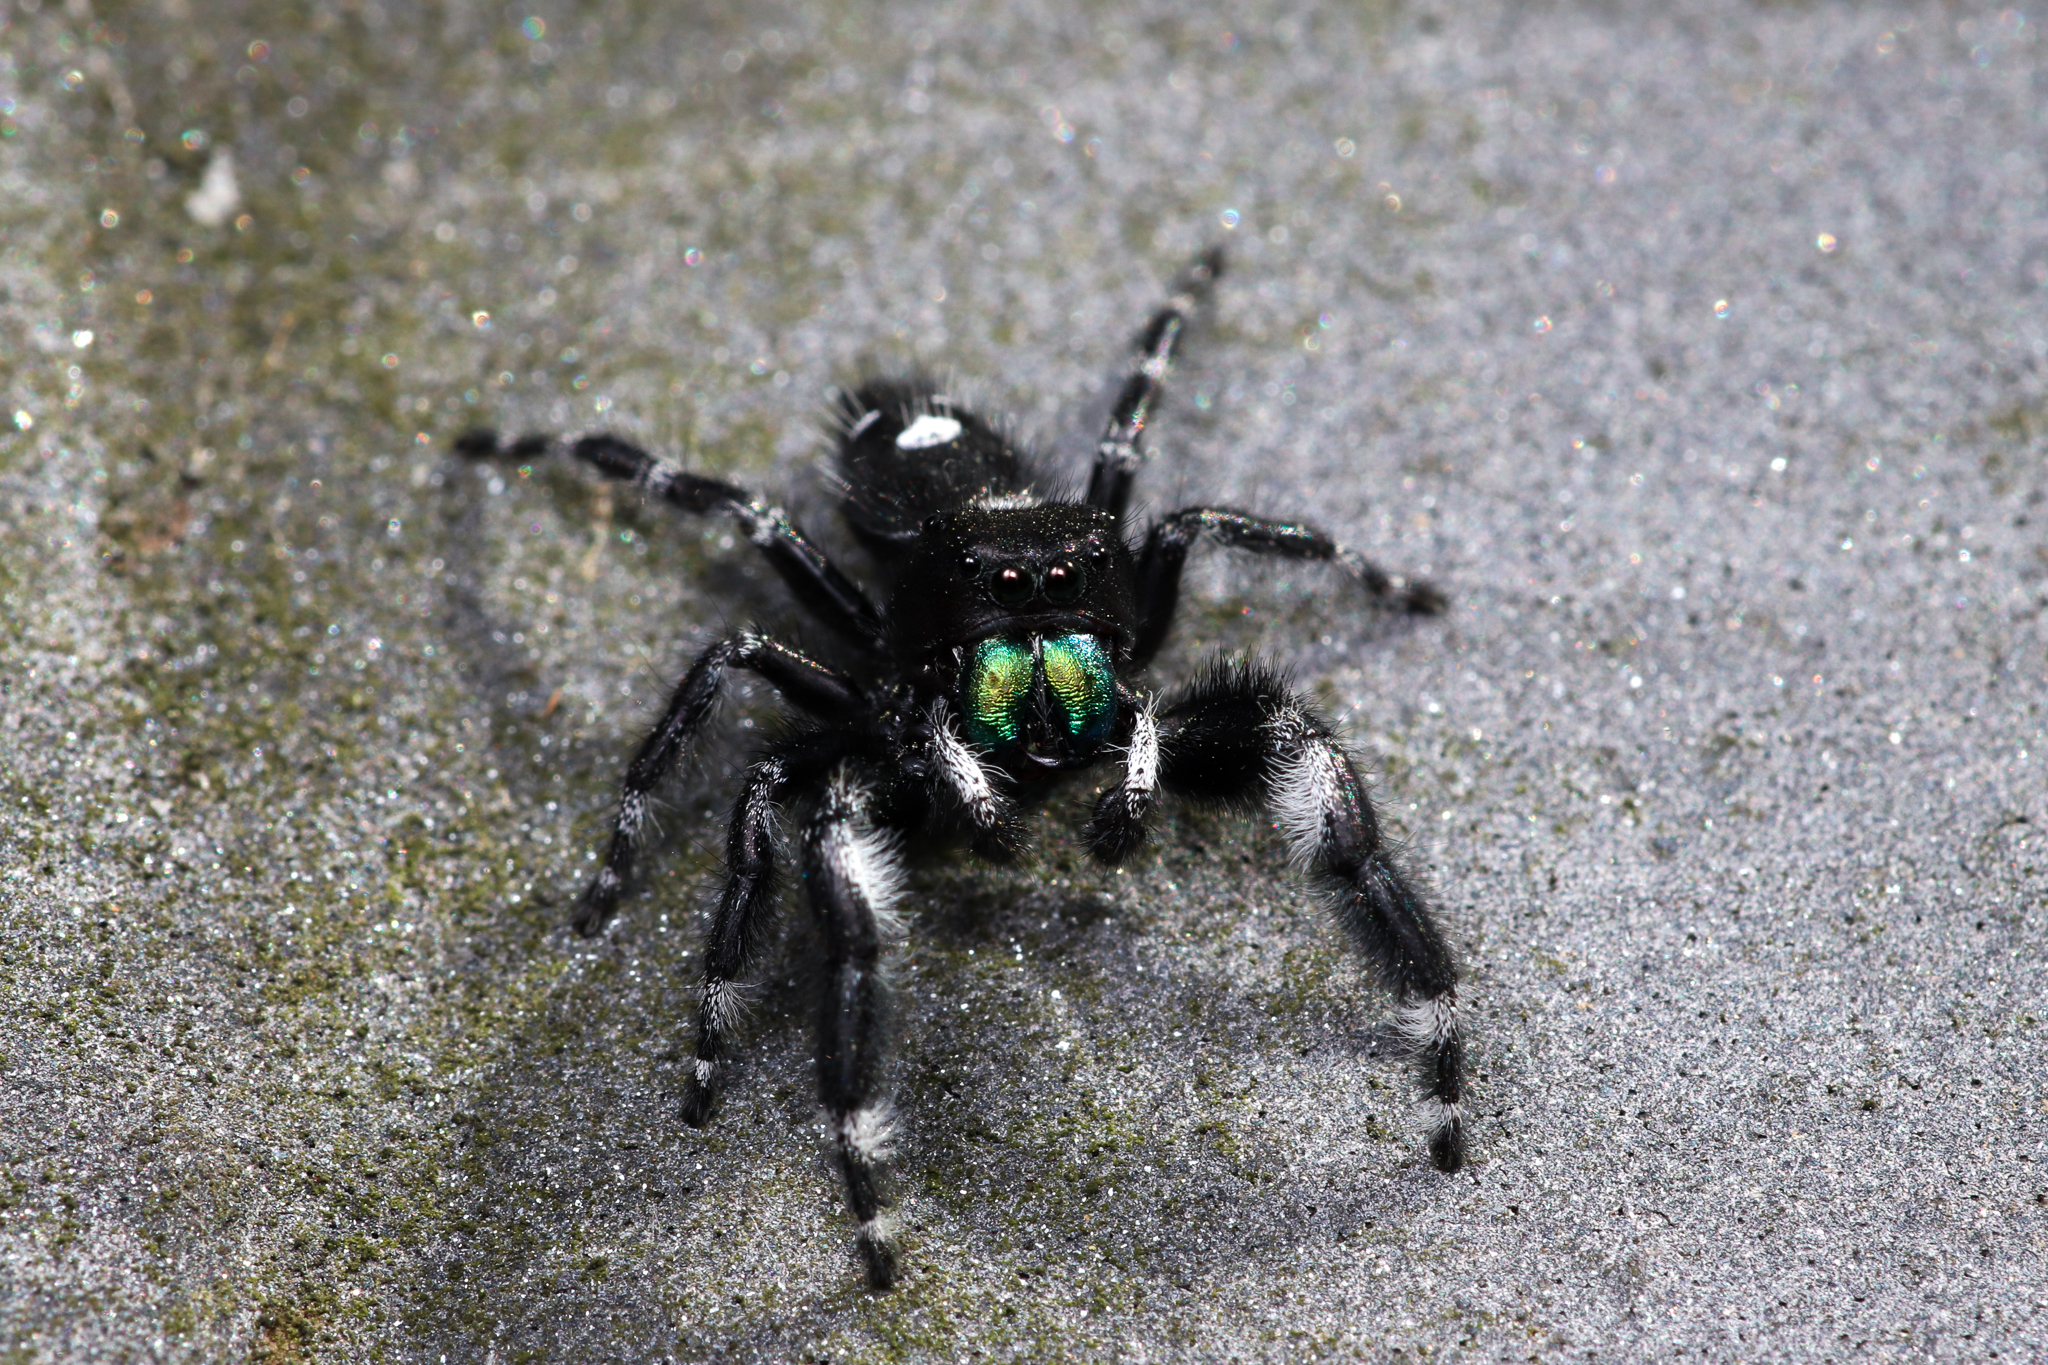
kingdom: Animalia
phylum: Arthropoda
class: Arachnida
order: Araneae
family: Salticidae
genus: Phidippus
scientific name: Phidippus audax
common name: Bold jumper
